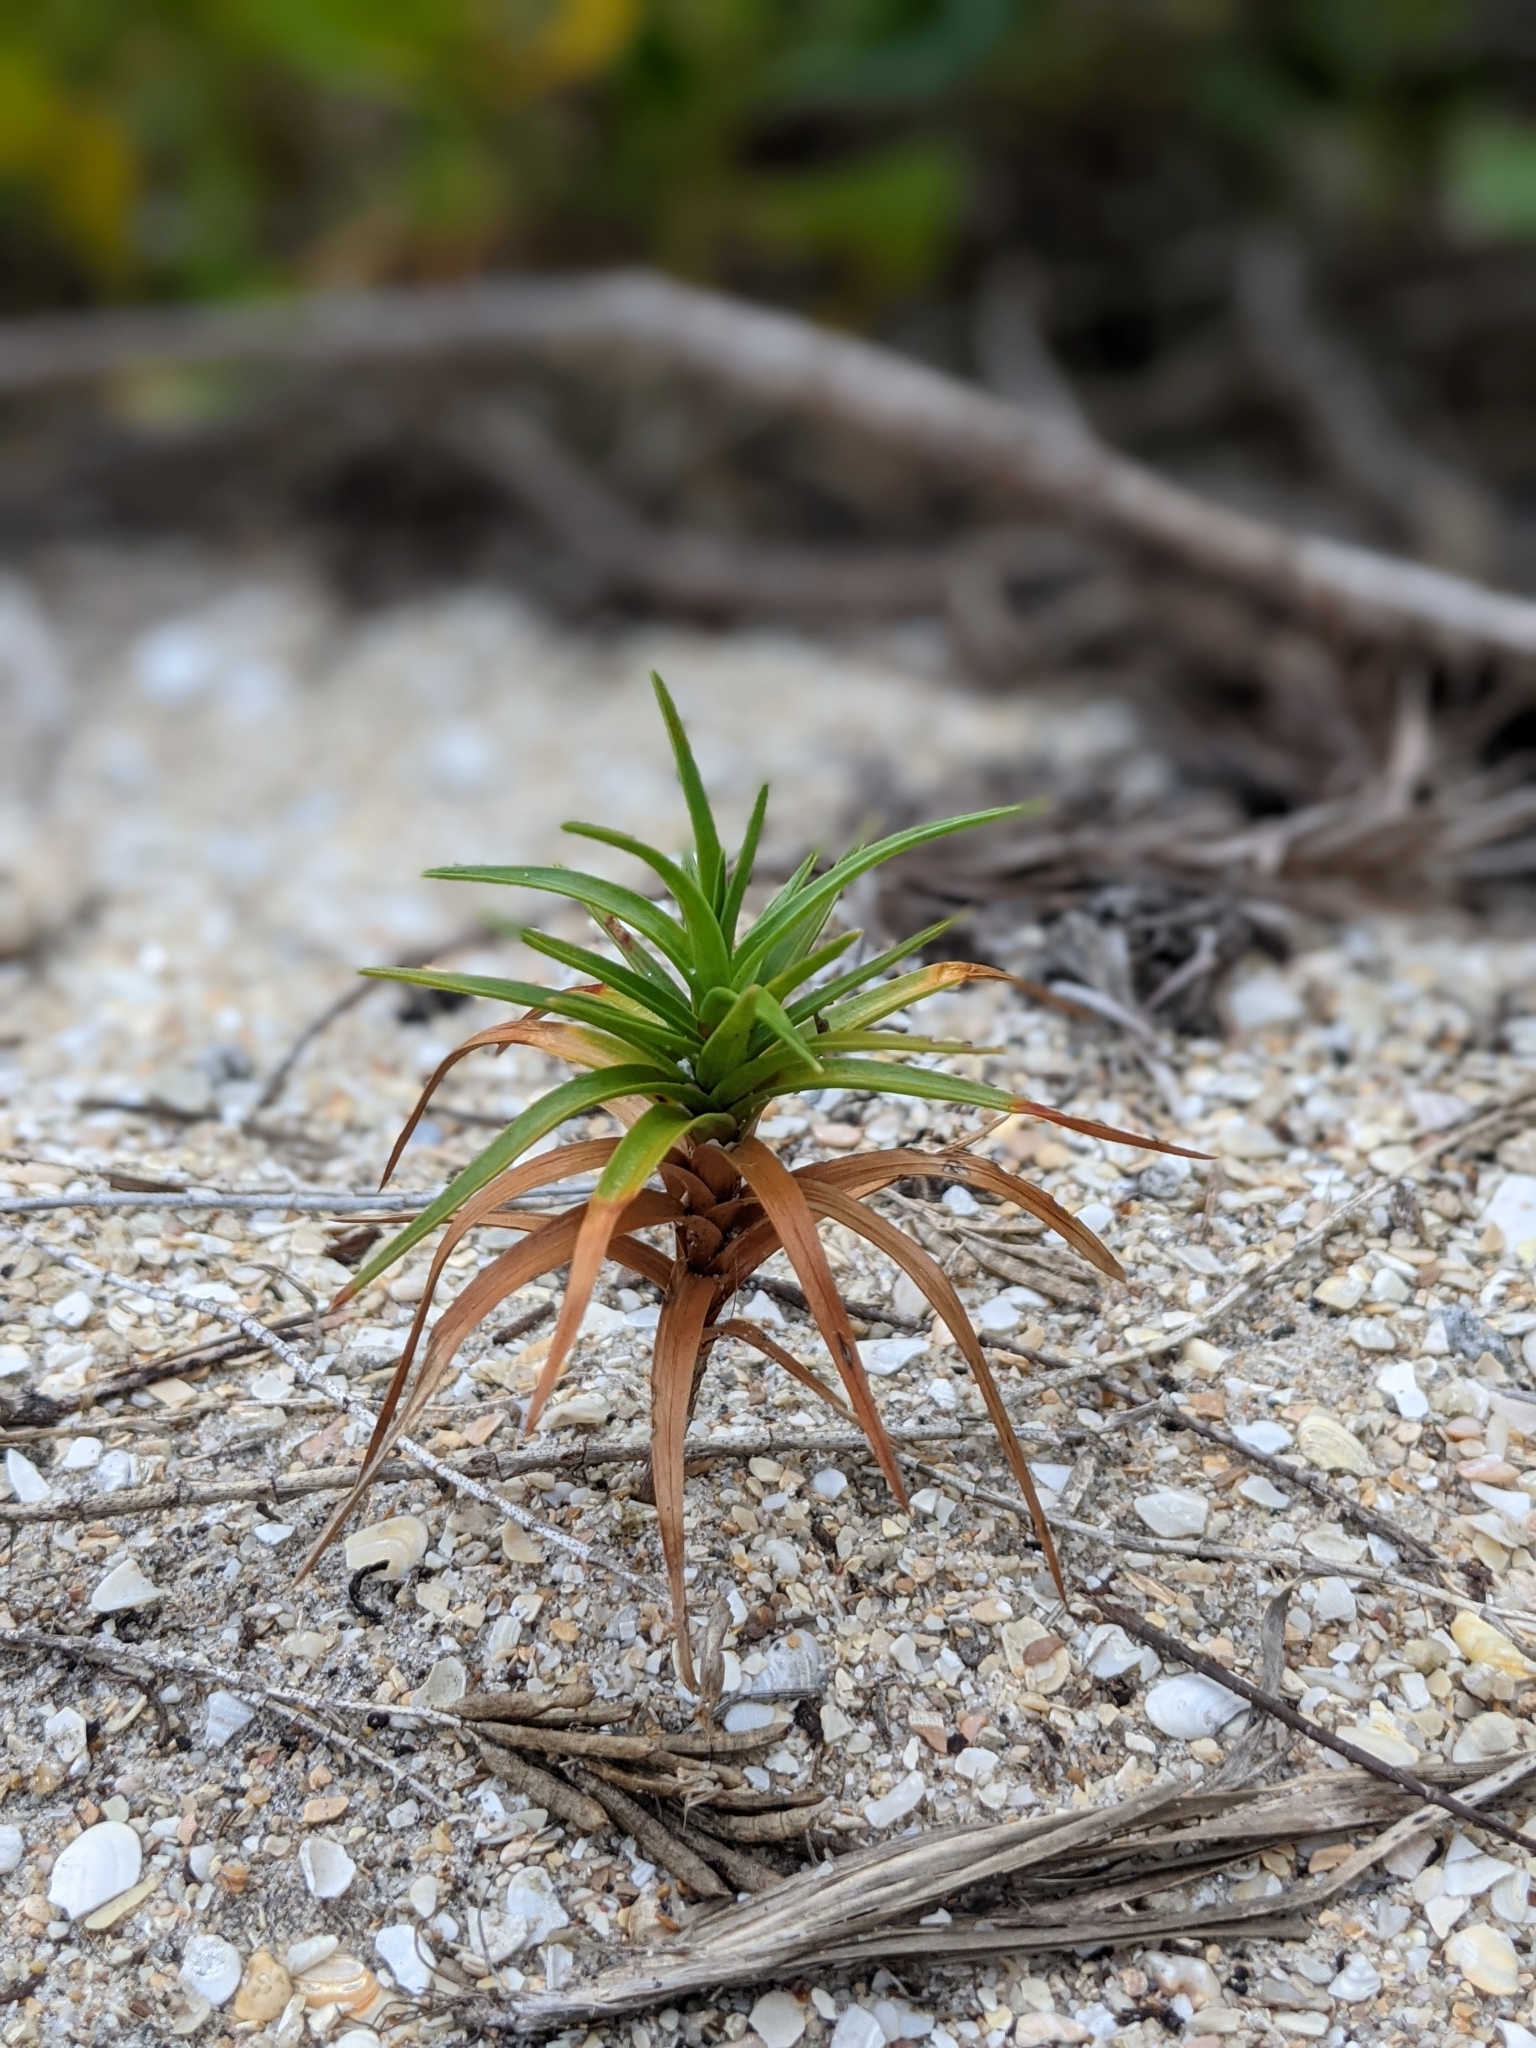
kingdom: Plantae
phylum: Tracheophyta
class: Liliopsida
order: Poales
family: Cyperaceae
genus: Cyperus
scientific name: Cyperus pedunculatus
